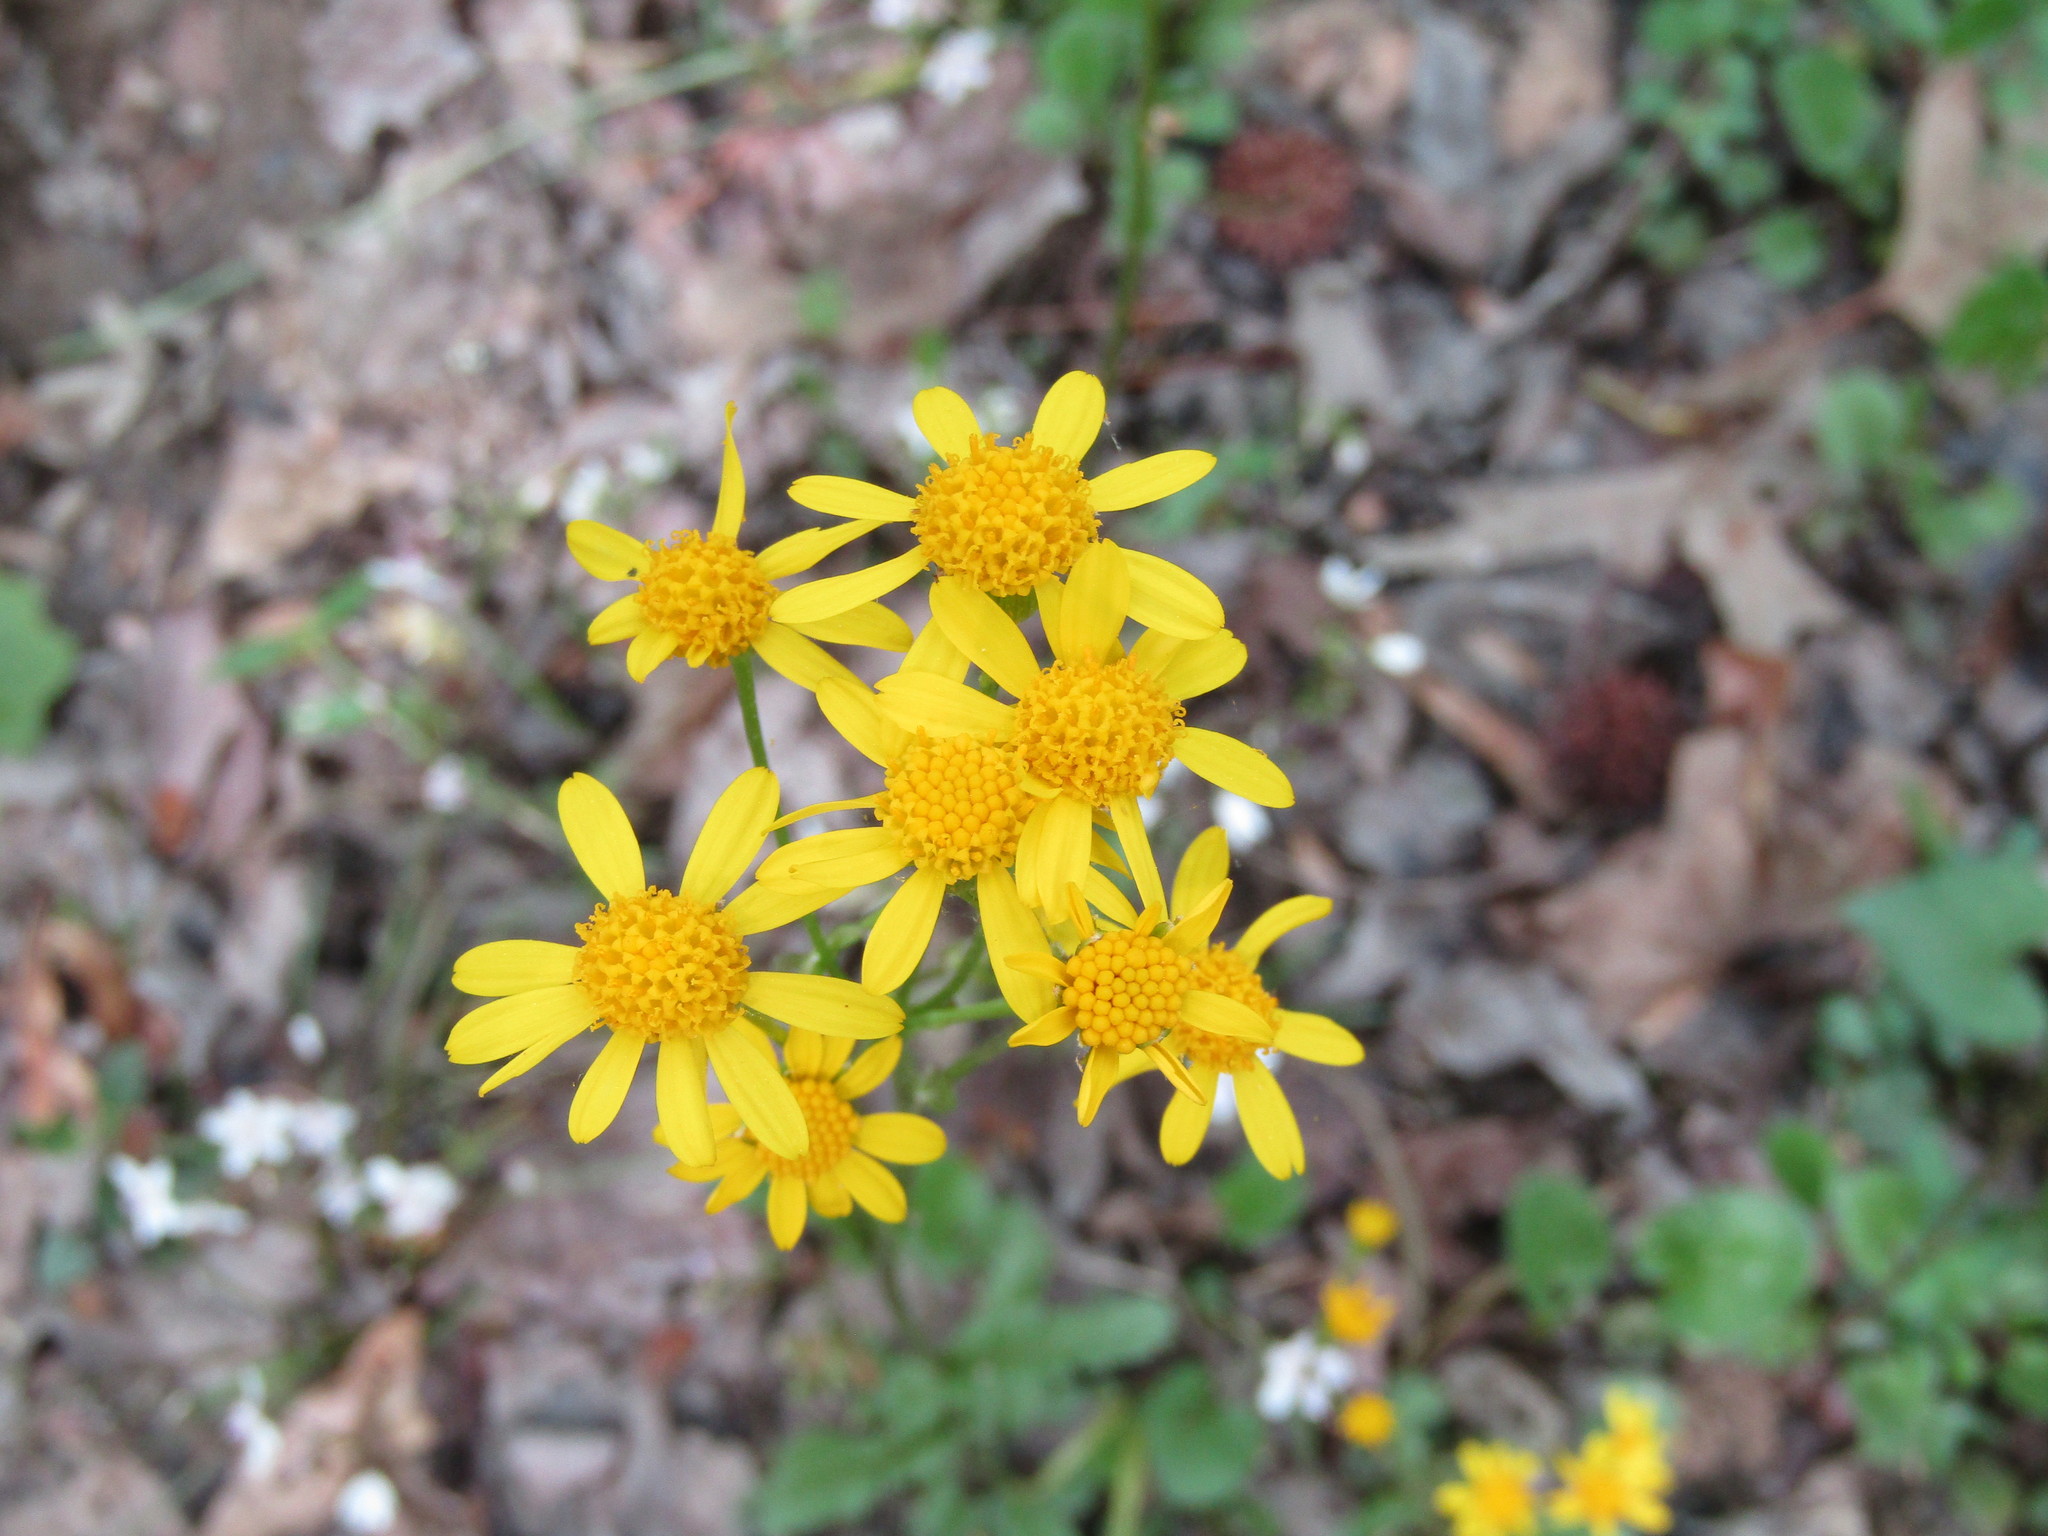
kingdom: Plantae
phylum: Tracheophyta
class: Magnoliopsida
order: Asterales
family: Asteraceae
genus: Packera
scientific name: Packera aurea
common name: Golden groundsel
